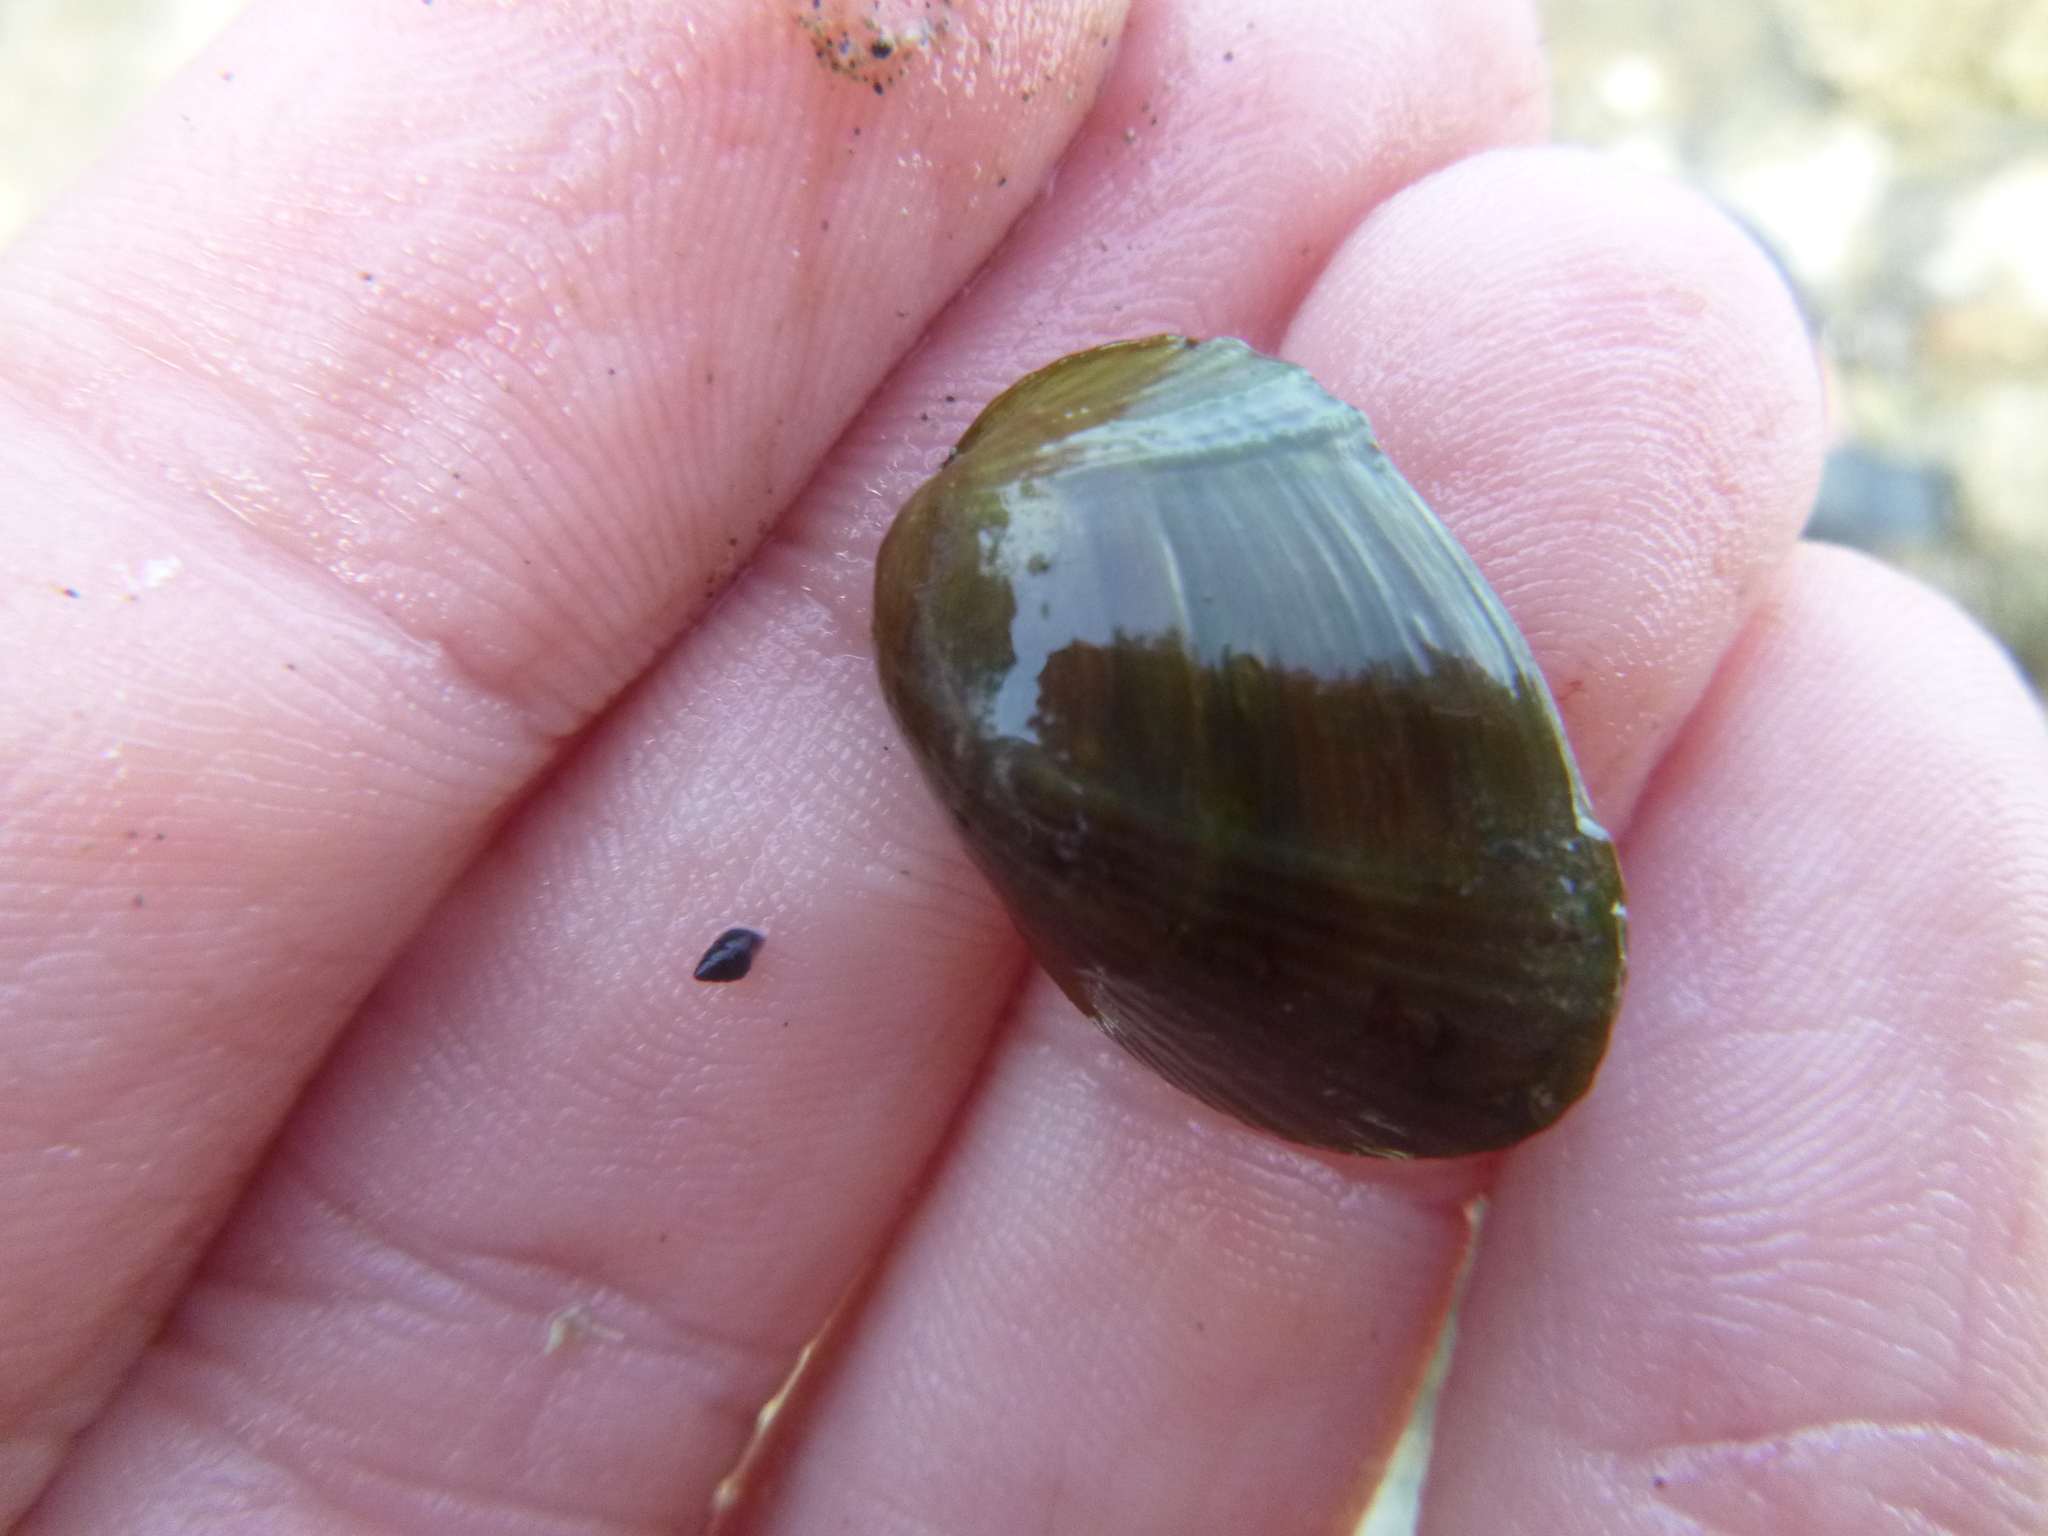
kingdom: Animalia
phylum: Mollusca
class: Bivalvia
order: Mytilida
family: Mytilidae
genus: Musculus
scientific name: Musculus impactus
